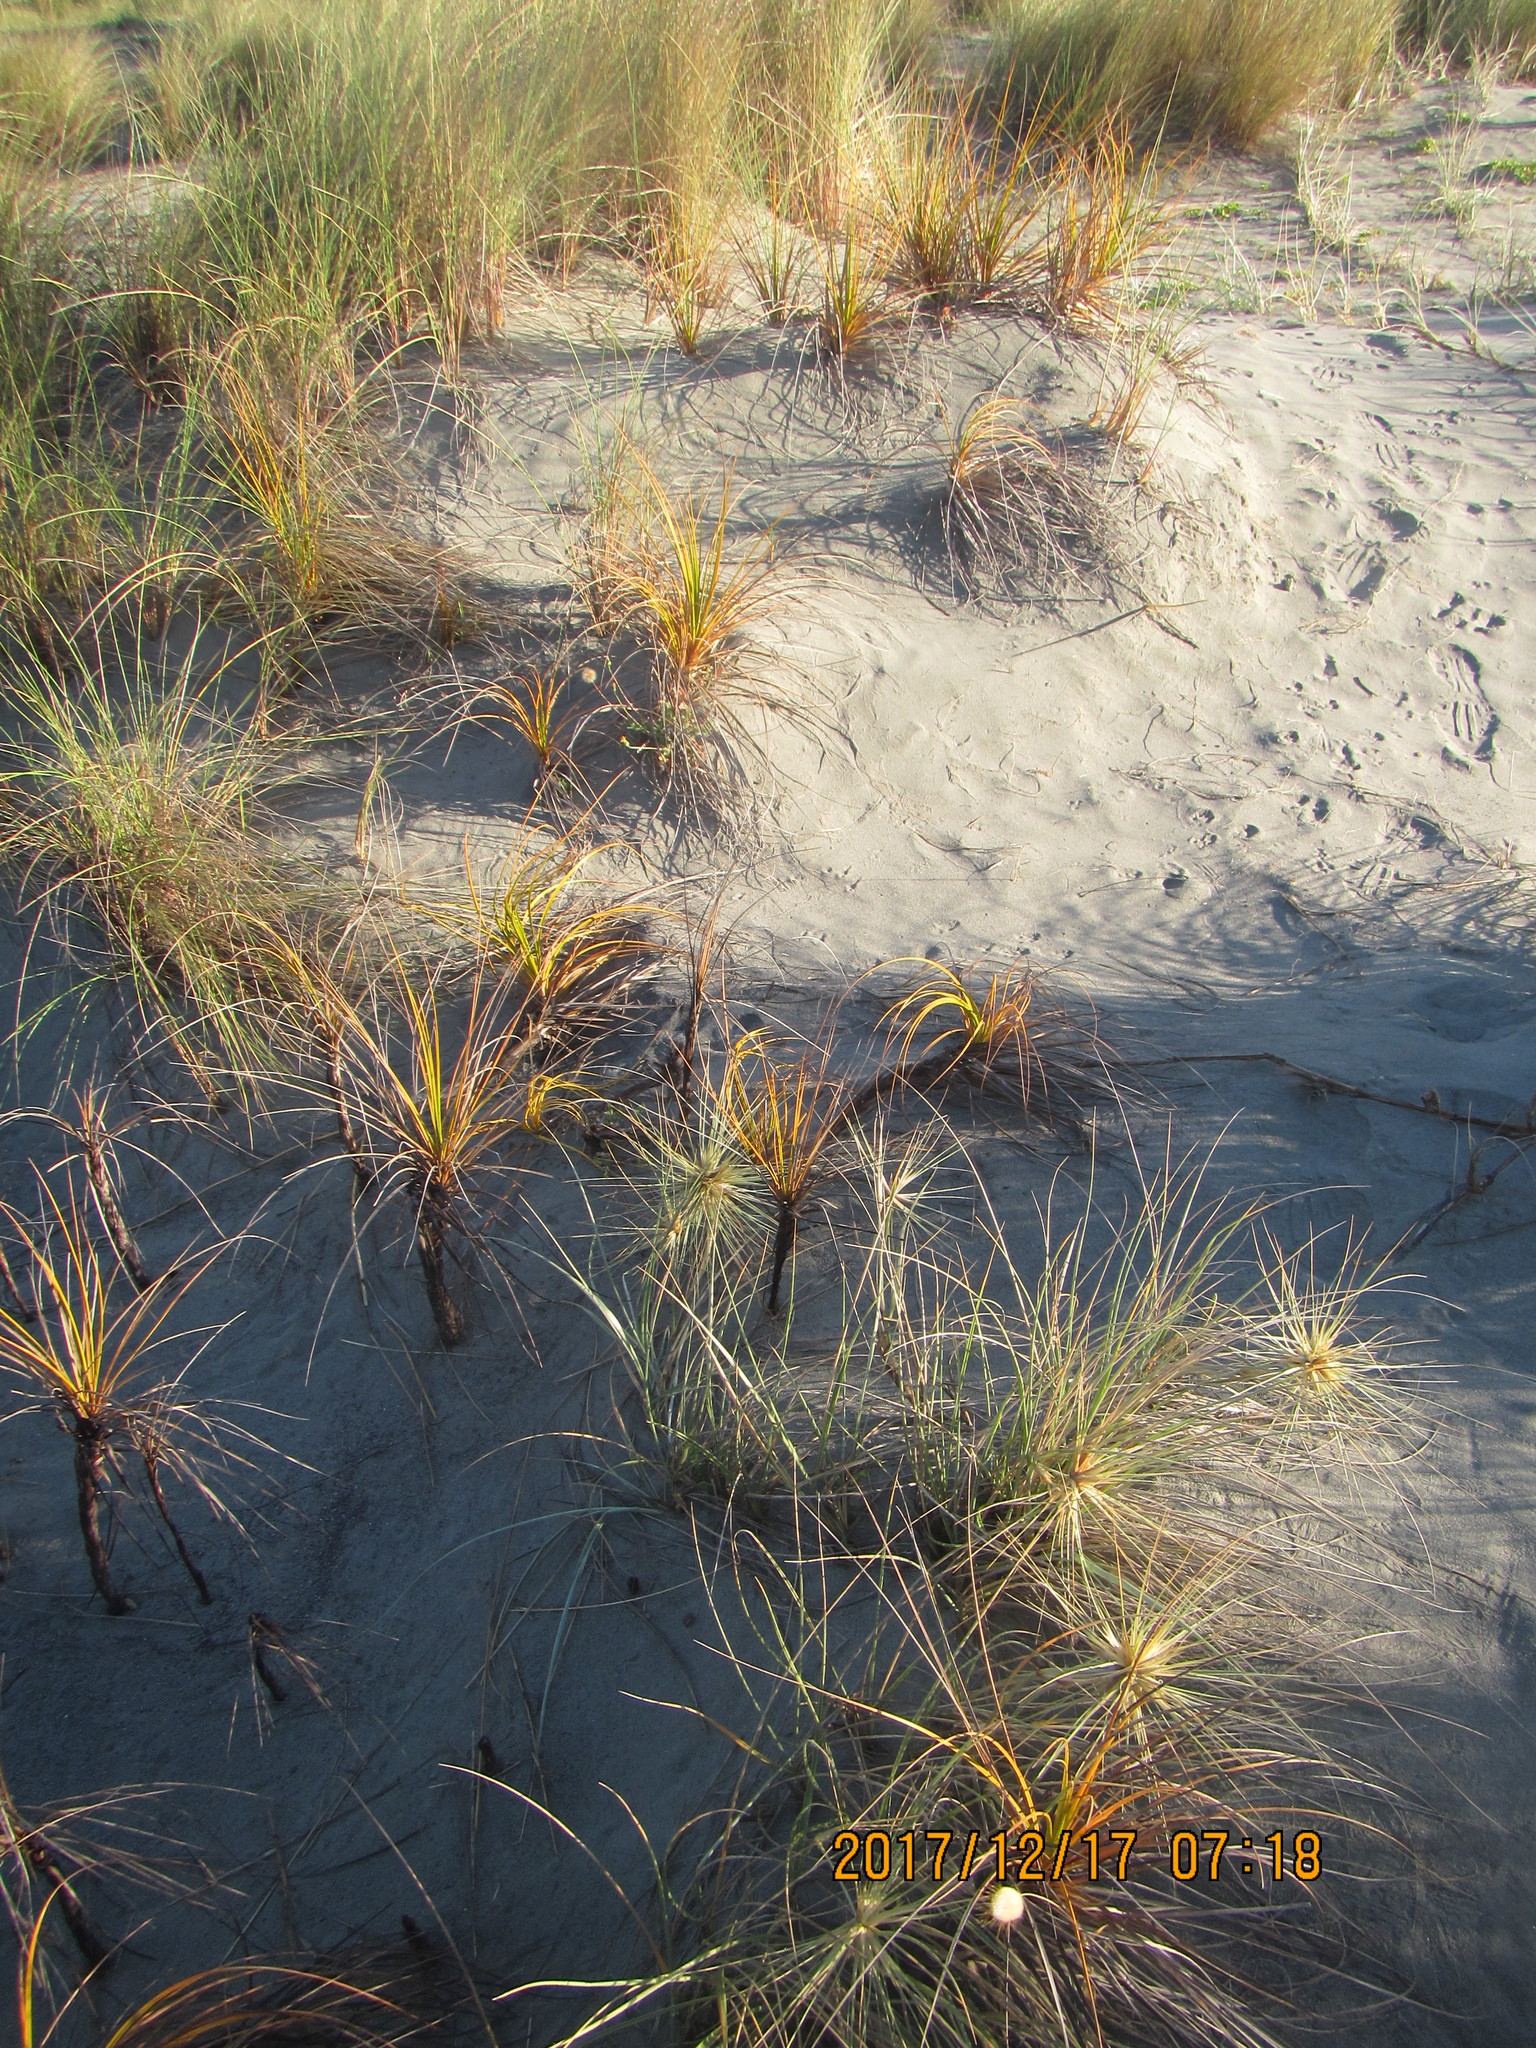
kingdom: Plantae
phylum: Tracheophyta
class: Liliopsida
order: Poales
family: Cyperaceae
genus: Ficinia
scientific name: Ficinia spiralis
